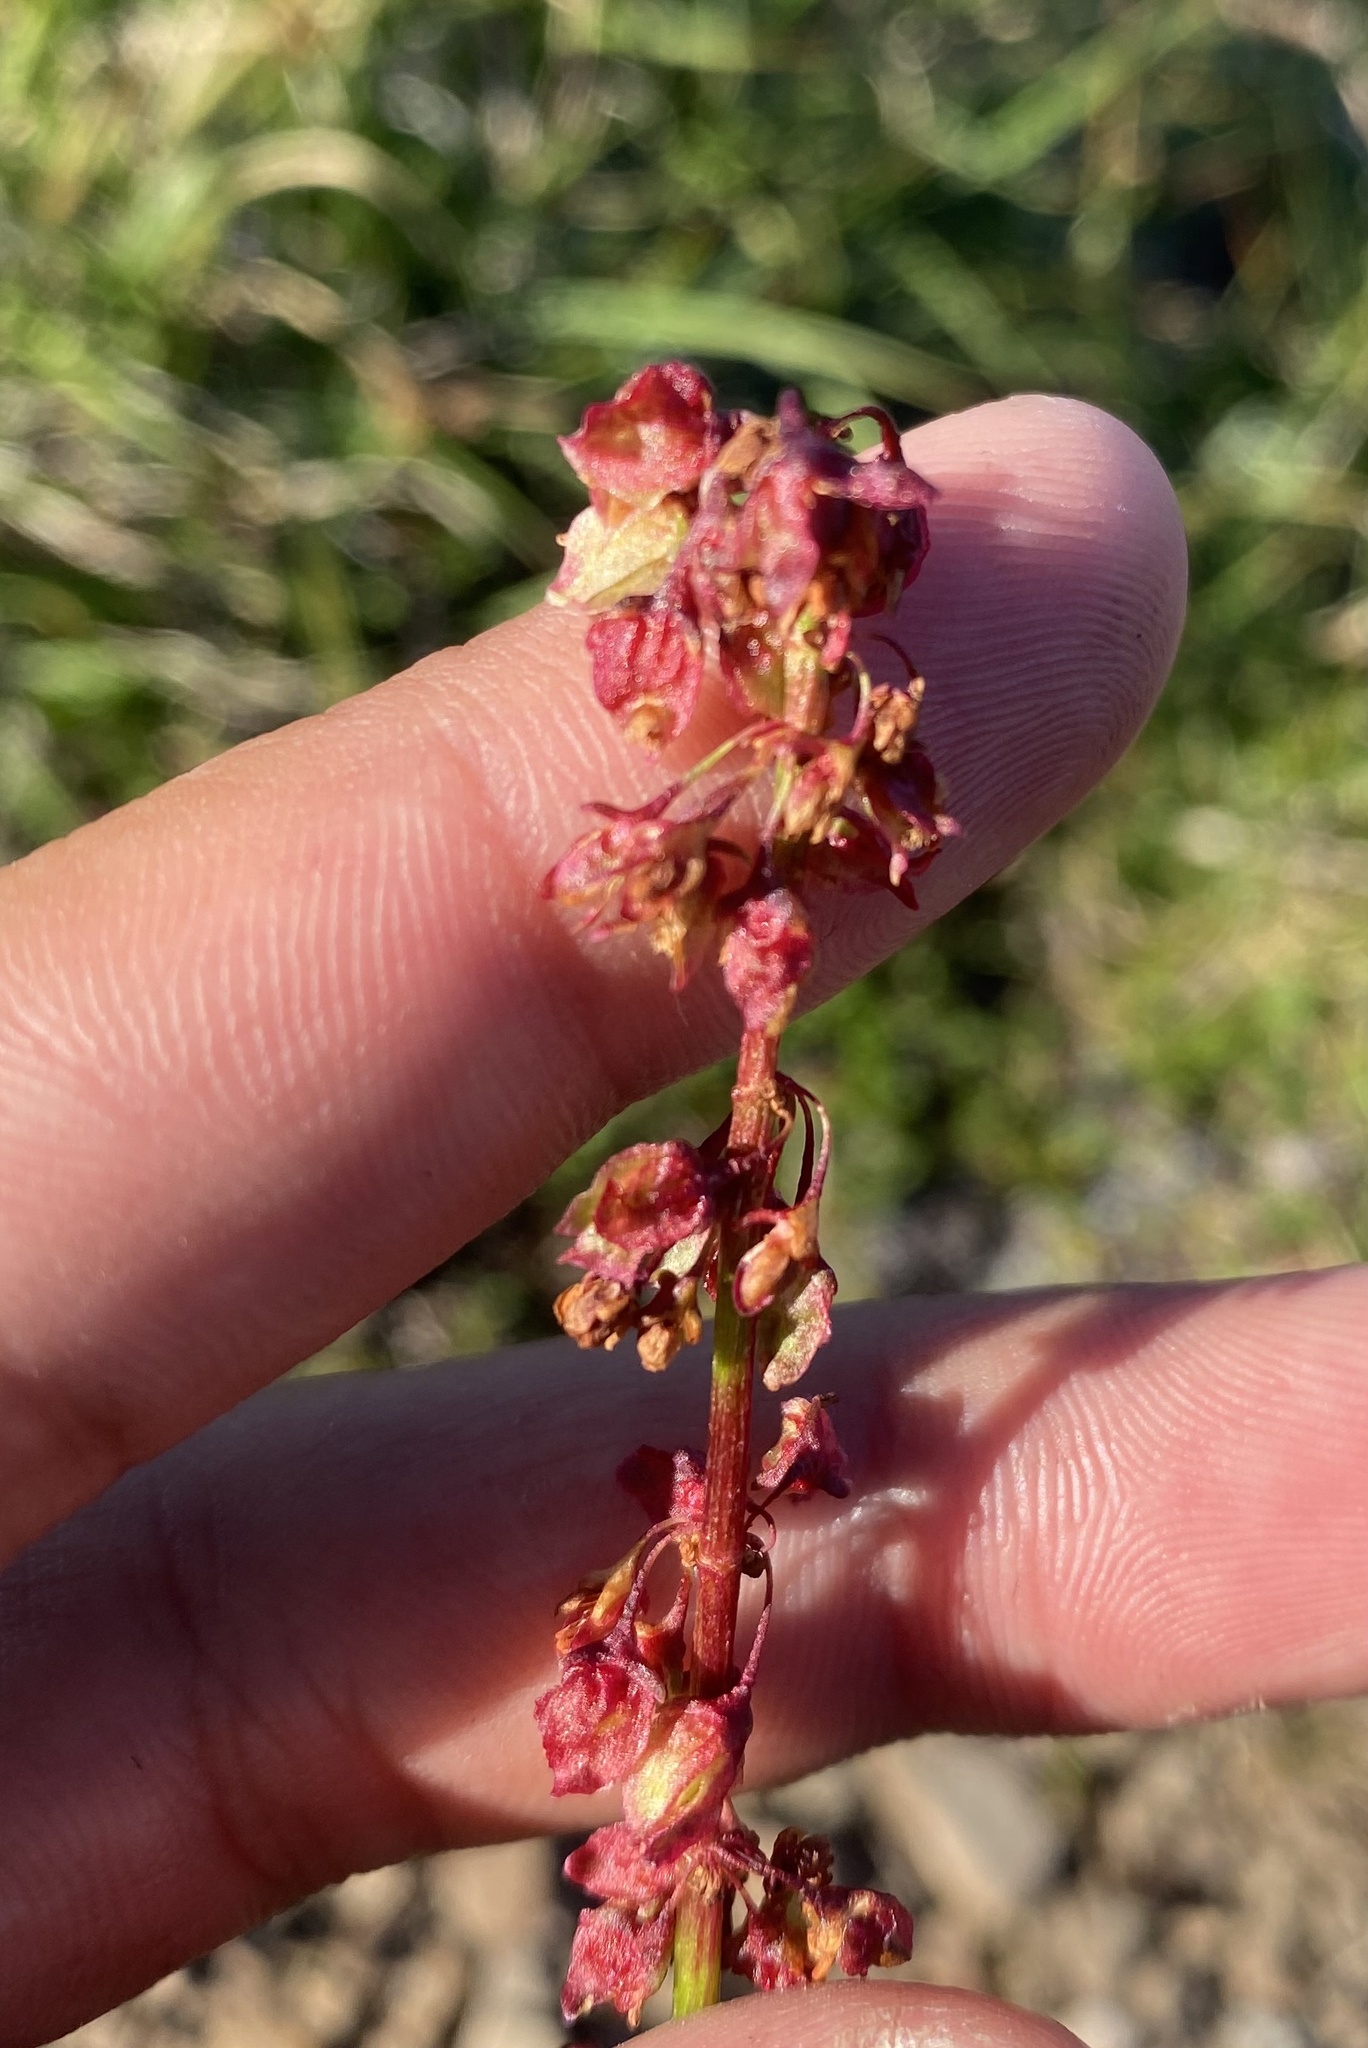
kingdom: Plantae
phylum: Tracheophyta
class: Magnoliopsida
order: Caryophyllales
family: Polygonaceae
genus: Rumex
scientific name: Rumex arcticus
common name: Arctic dock
